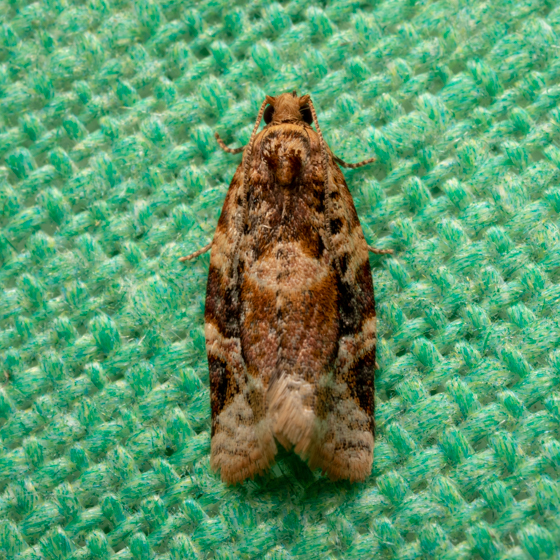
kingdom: Animalia
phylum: Arthropoda
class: Insecta
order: Lepidoptera
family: Tortricidae
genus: Argyrotaenia
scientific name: Argyrotaenia velutinana
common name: Red-banded leafroller moth
